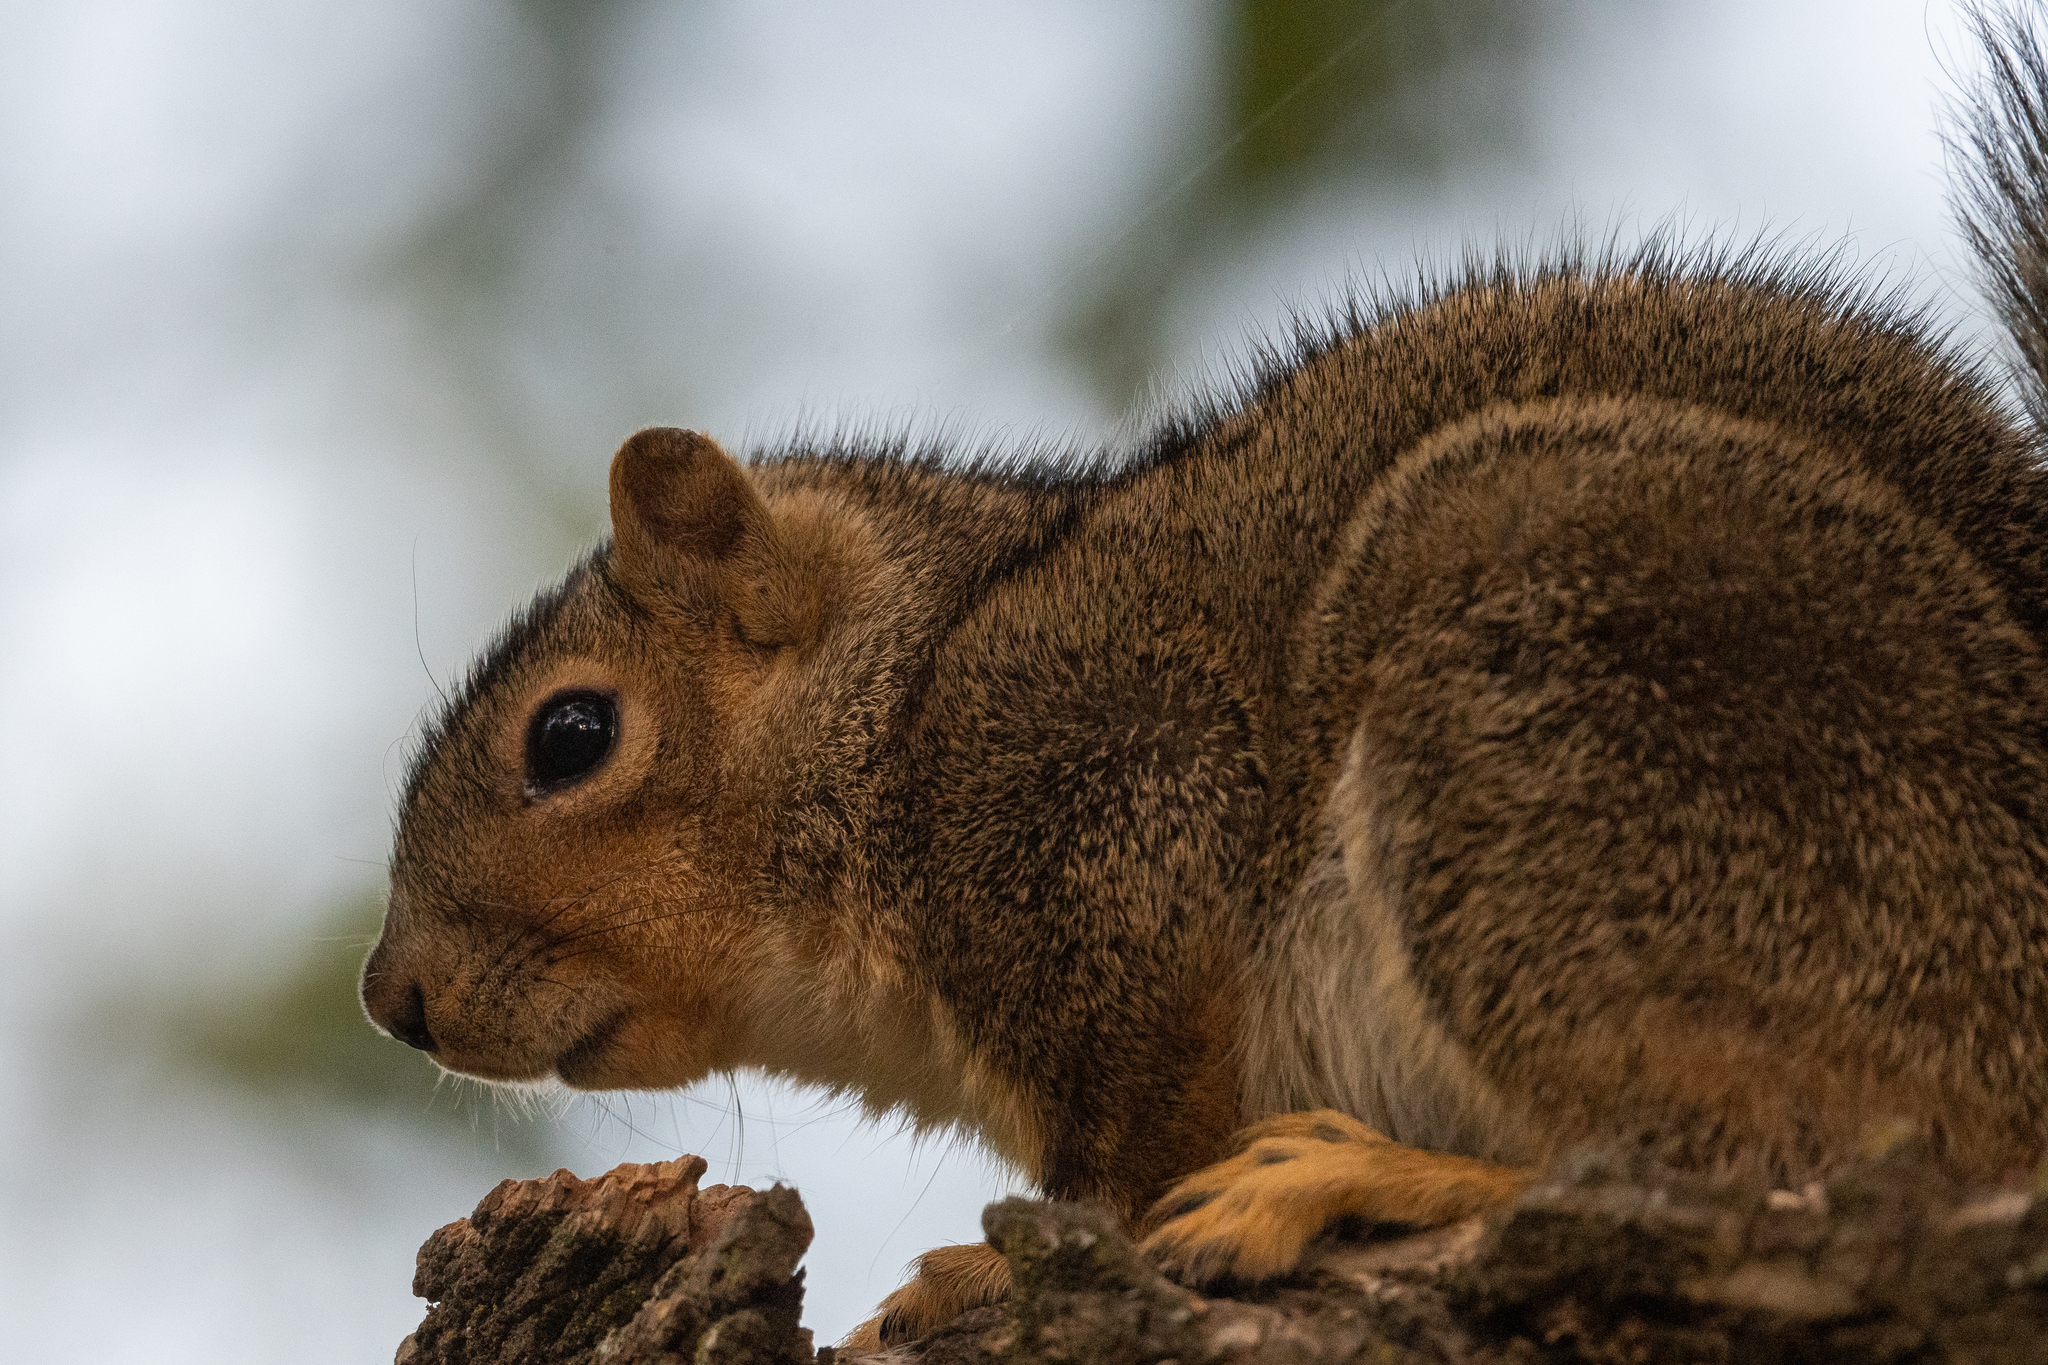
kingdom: Animalia
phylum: Chordata
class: Mammalia
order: Rodentia
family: Sciuridae
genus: Sciurus
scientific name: Sciurus carolinensis
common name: Eastern gray squirrel
